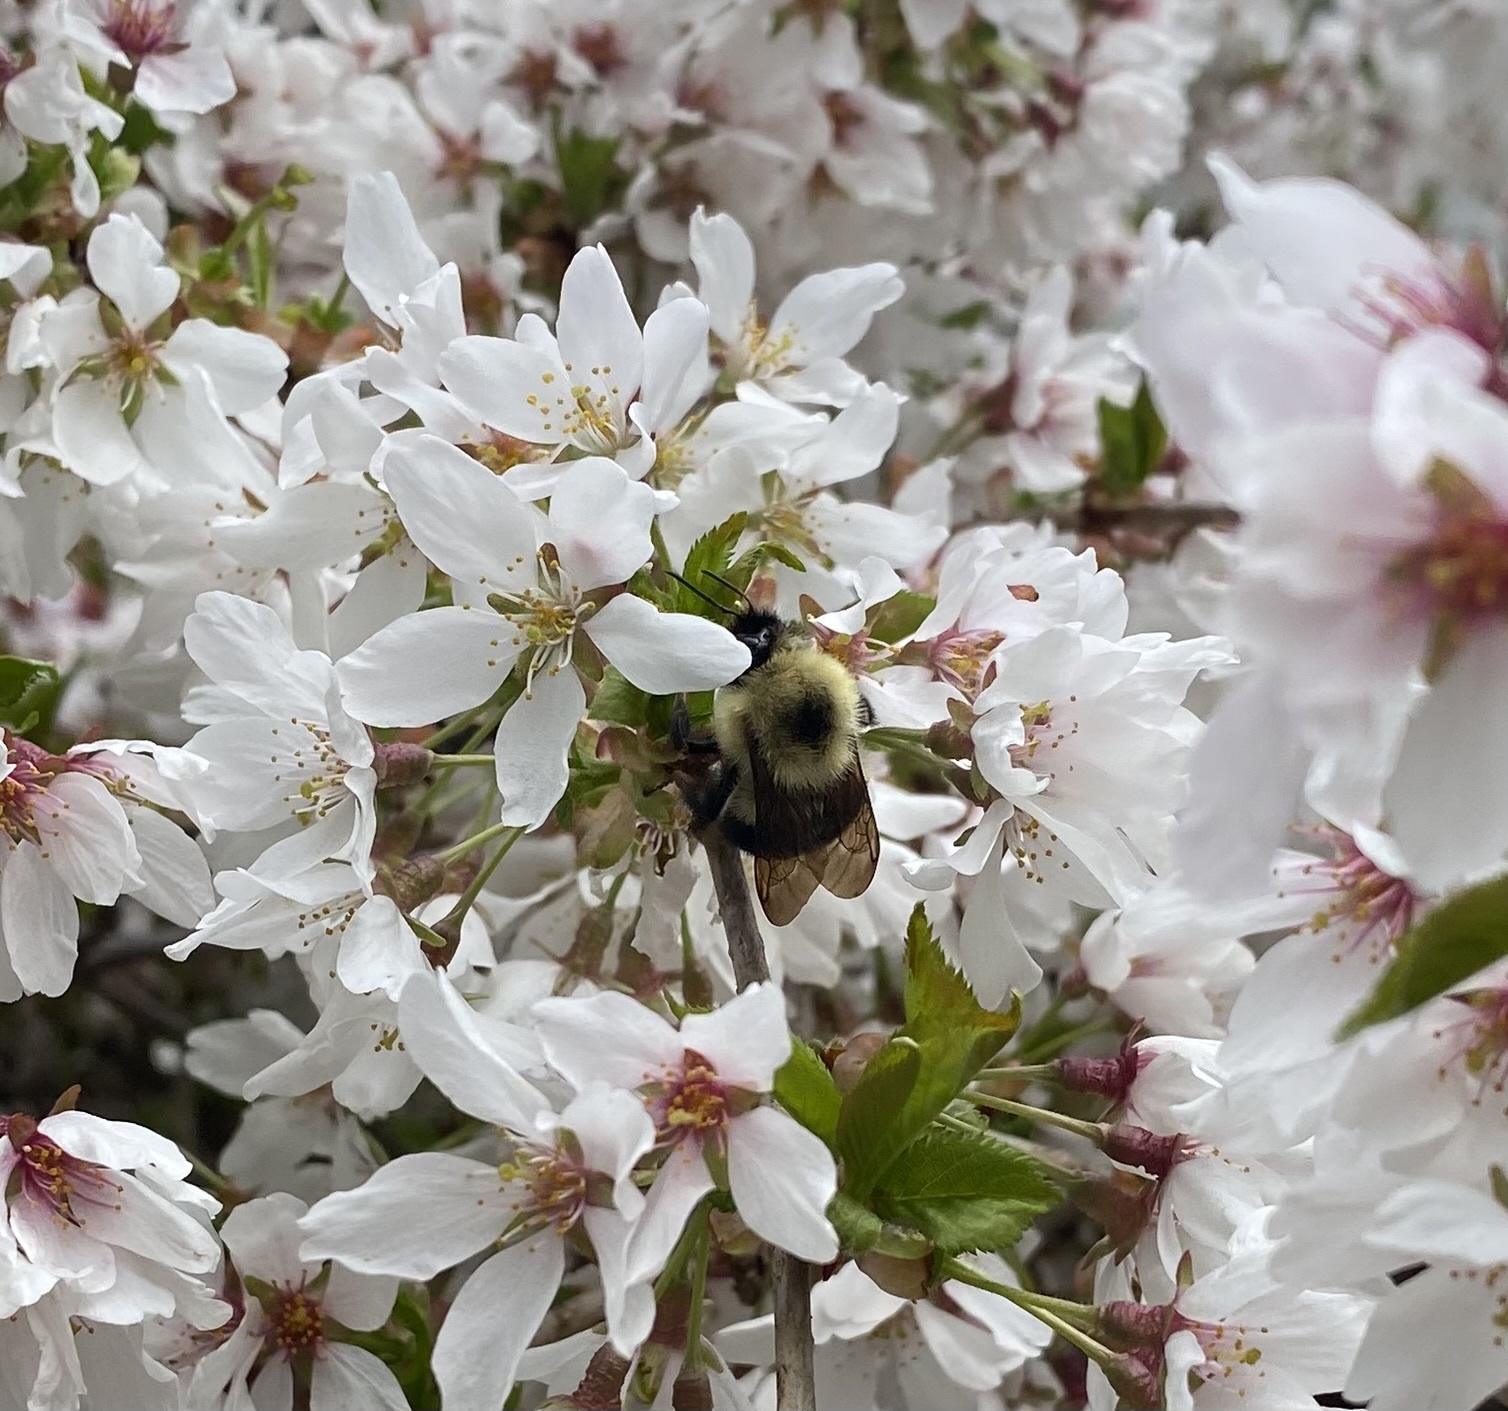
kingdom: Animalia
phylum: Arthropoda
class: Insecta
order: Hymenoptera
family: Apidae
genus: Bombus
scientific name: Bombus bimaculatus
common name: Two-spotted bumble bee
